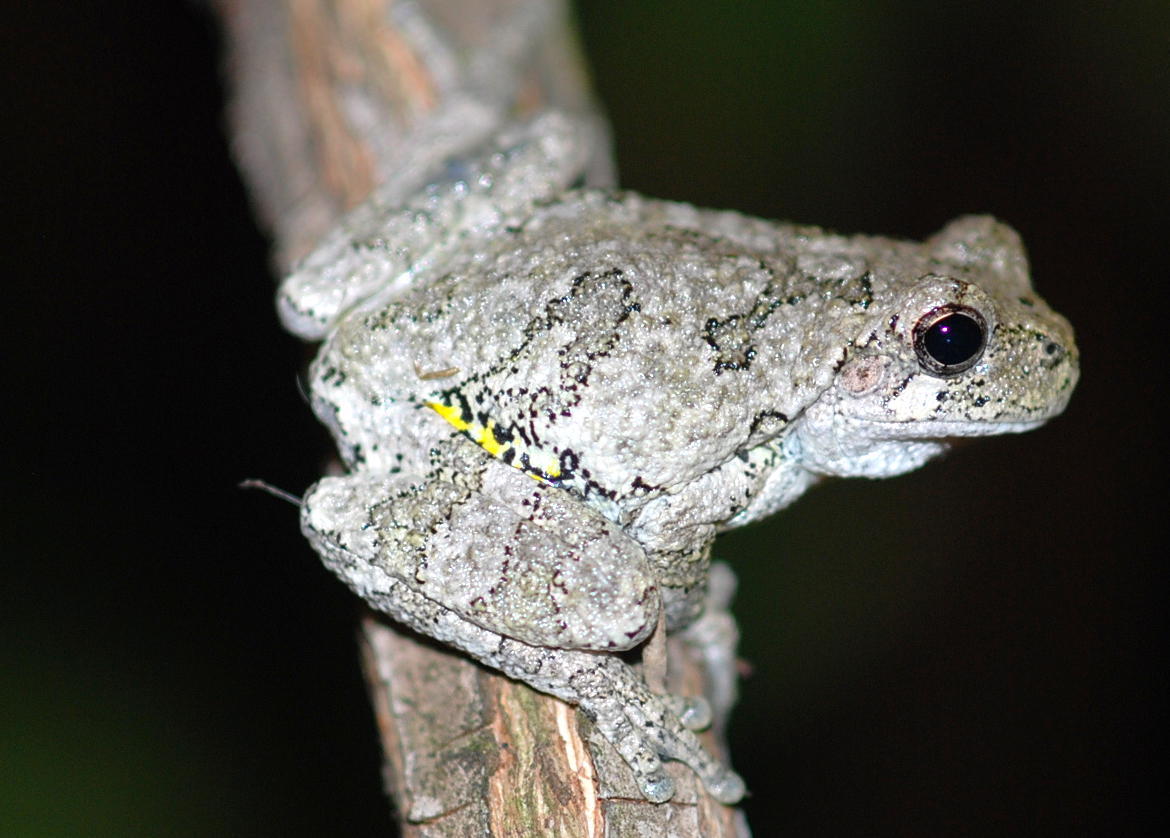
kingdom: Animalia
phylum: Chordata
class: Amphibia
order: Anura
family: Hylidae
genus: Dryophytes
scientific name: Dryophytes versicolor
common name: Gray treefrog
